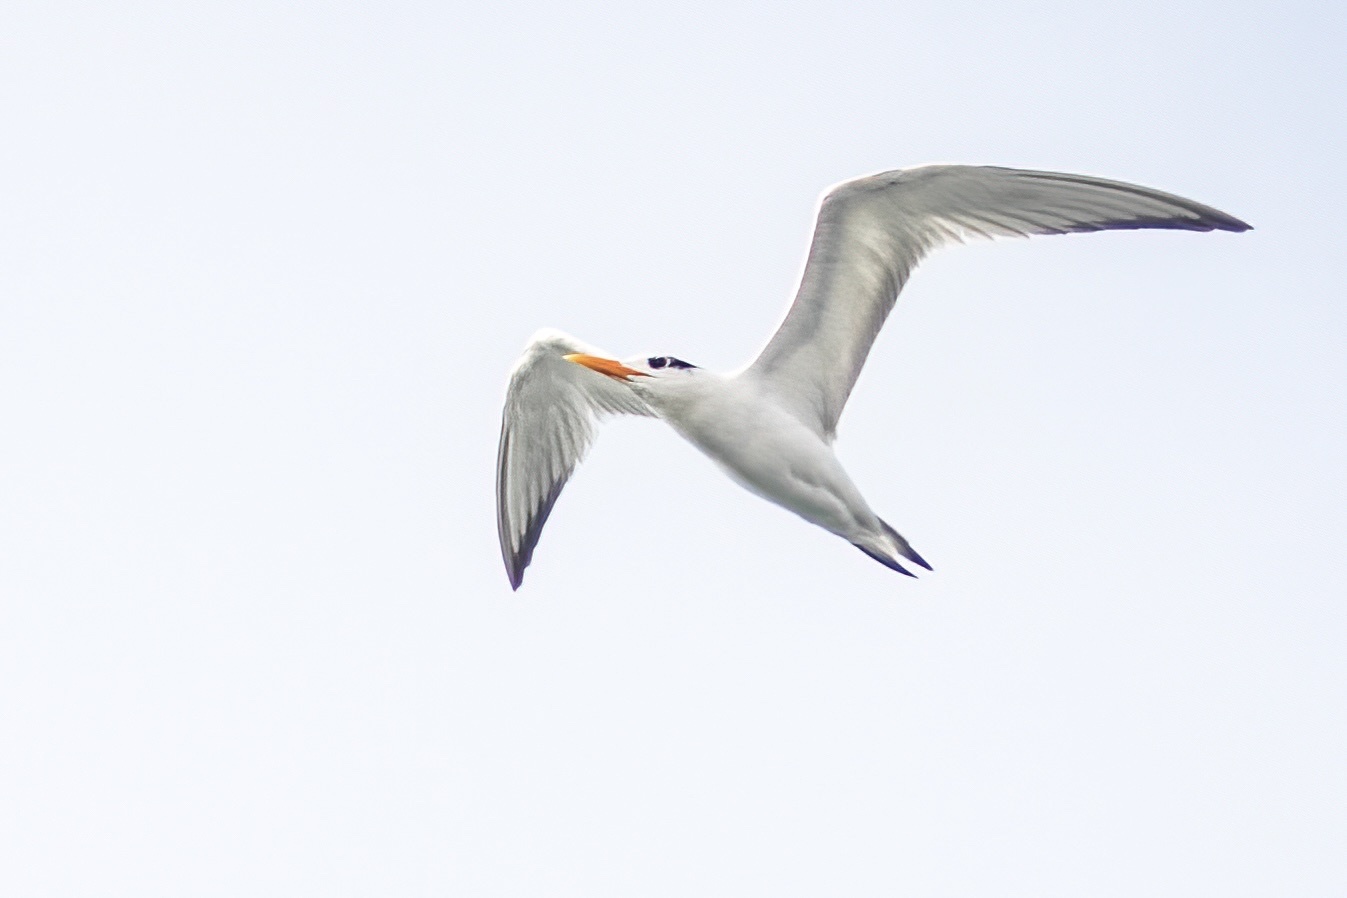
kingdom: Animalia
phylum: Chordata
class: Aves
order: Charadriiformes
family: Laridae
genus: Thalasseus
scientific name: Thalasseus maximus
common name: Royal tern
